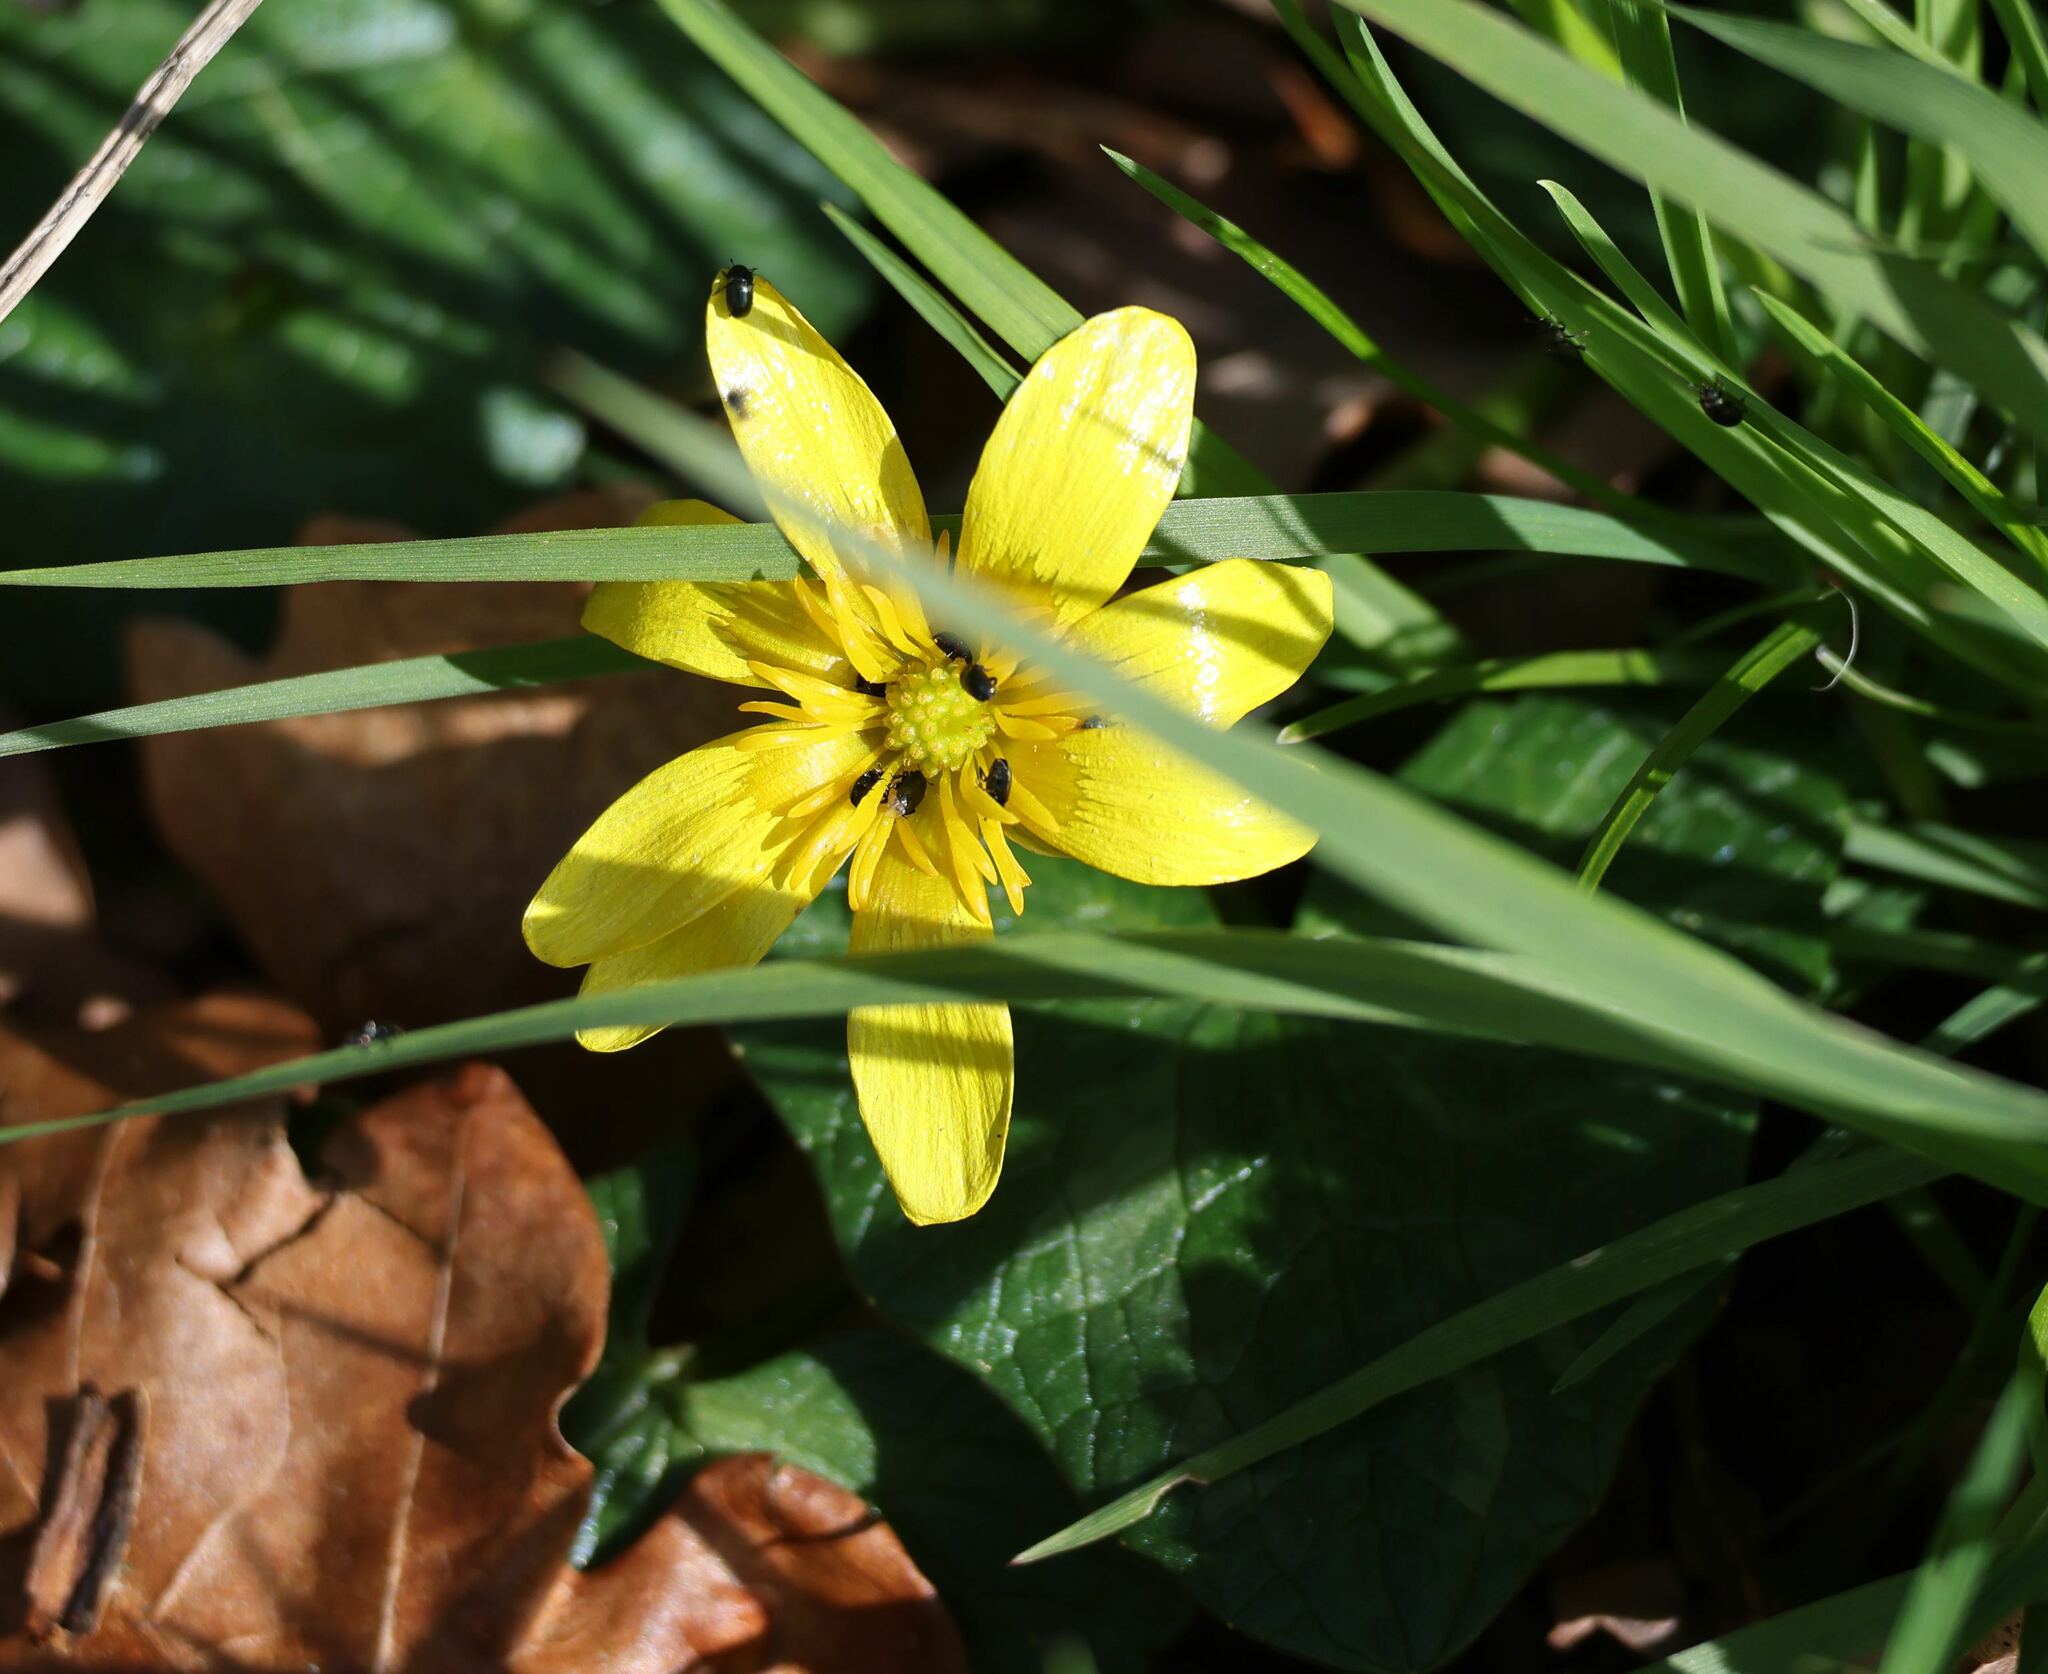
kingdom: Plantae
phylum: Tracheophyta
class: Magnoliopsida
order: Ranunculales
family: Ranunculaceae
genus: Ficaria
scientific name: Ficaria verna
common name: Lesser celandine
